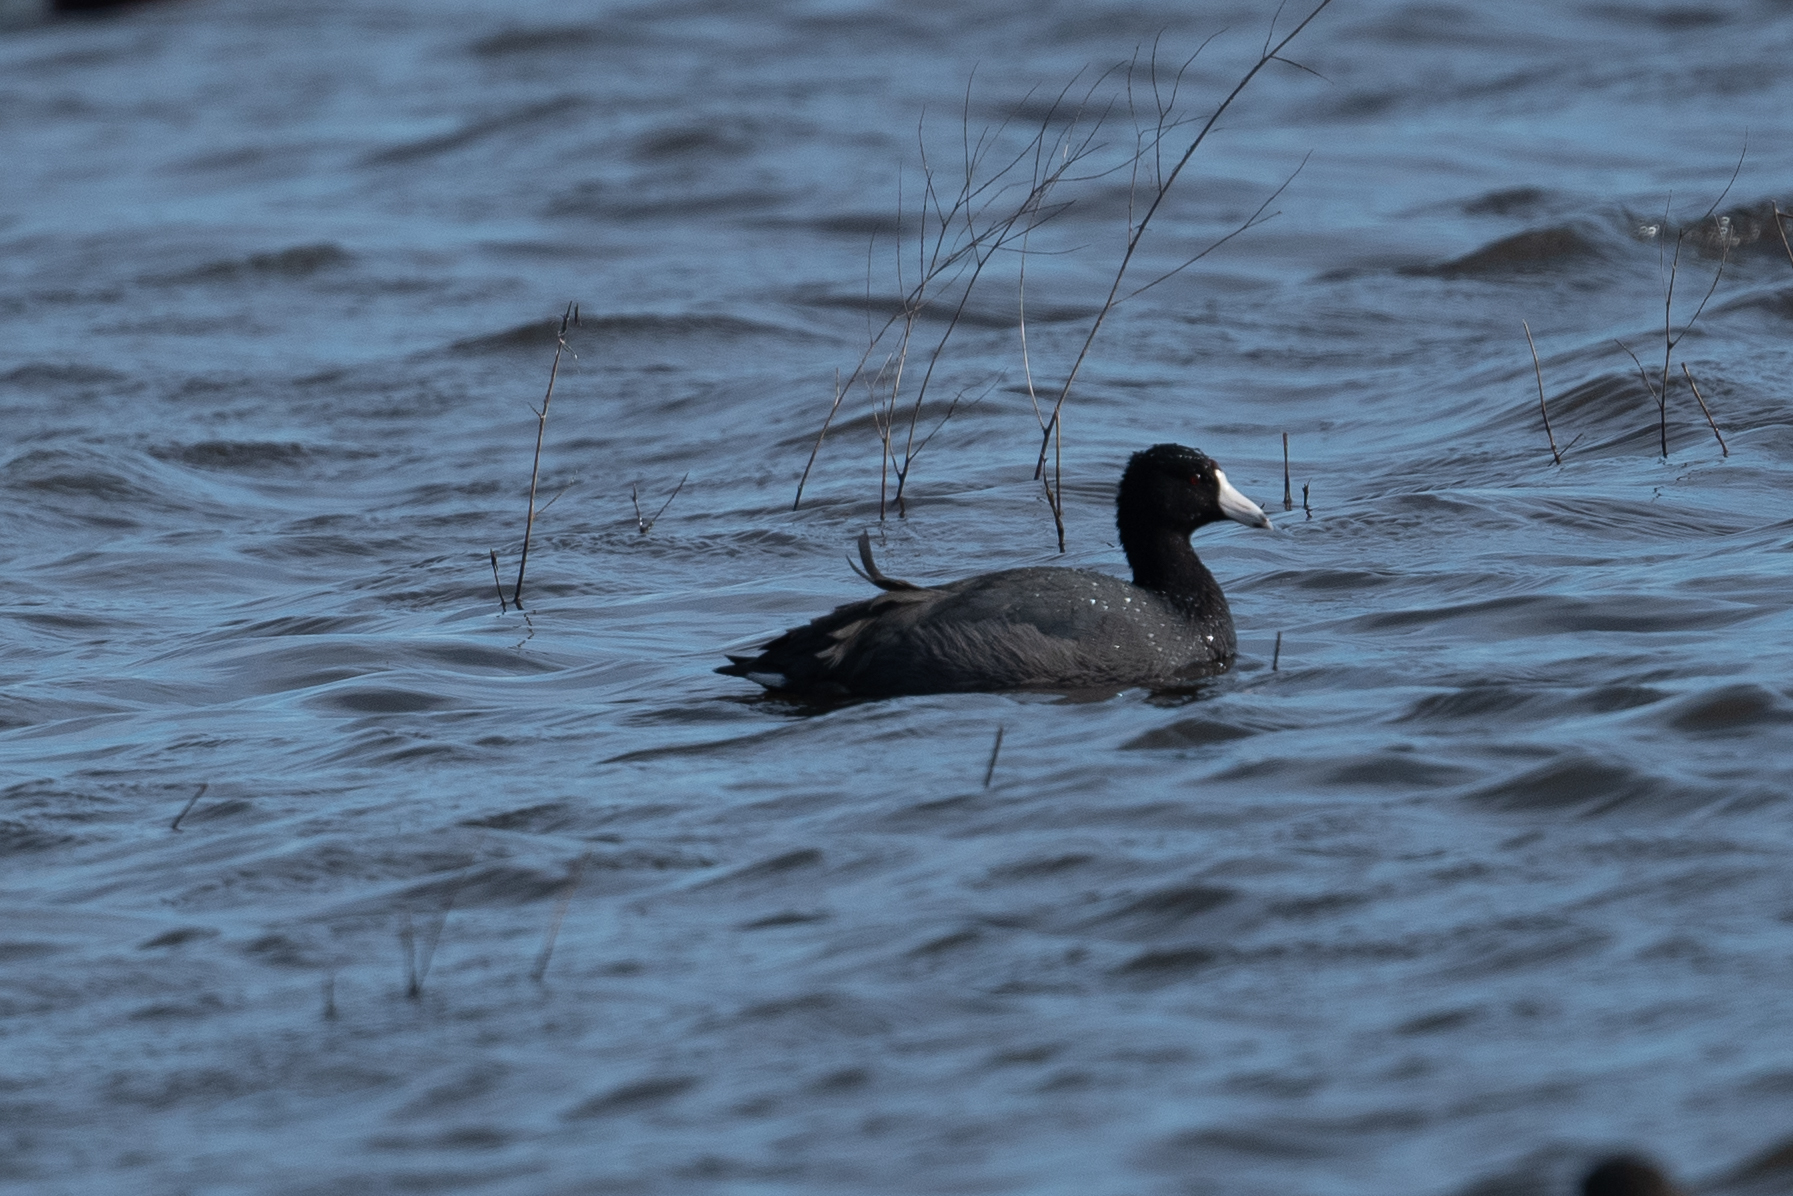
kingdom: Animalia
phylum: Chordata
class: Aves
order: Gruiformes
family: Rallidae
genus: Fulica
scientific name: Fulica americana
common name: American coot
